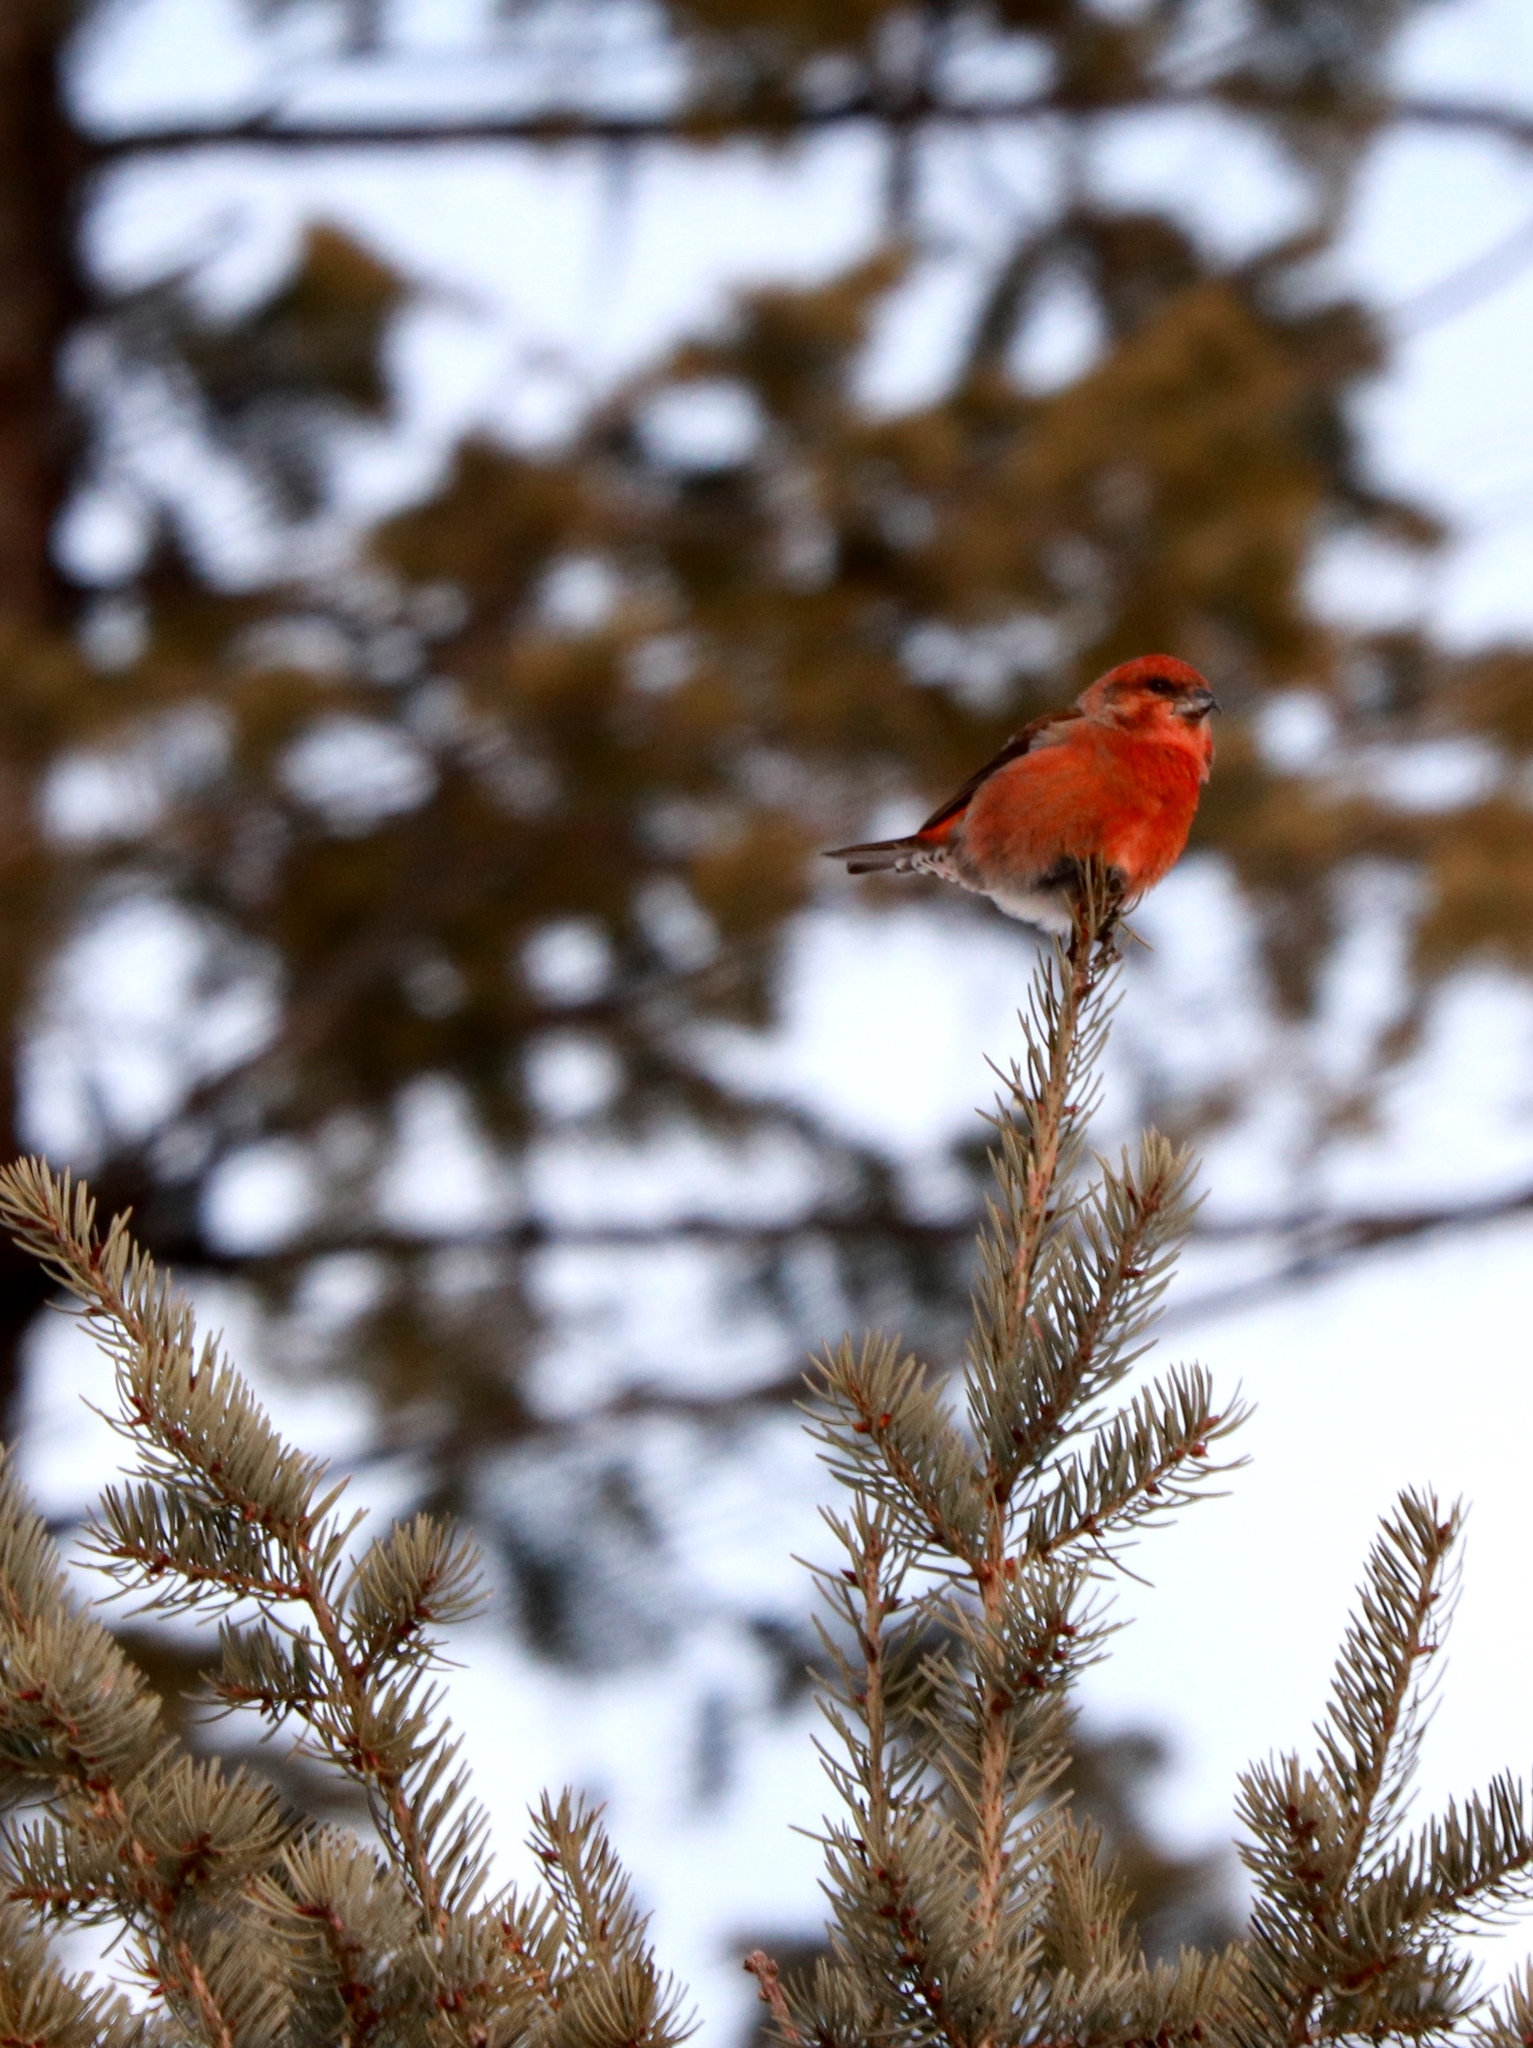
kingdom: Animalia
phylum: Chordata
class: Aves
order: Passeriformes
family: Fringillidae
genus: Loxia
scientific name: Loxia curvirostra
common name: Red crossbill
